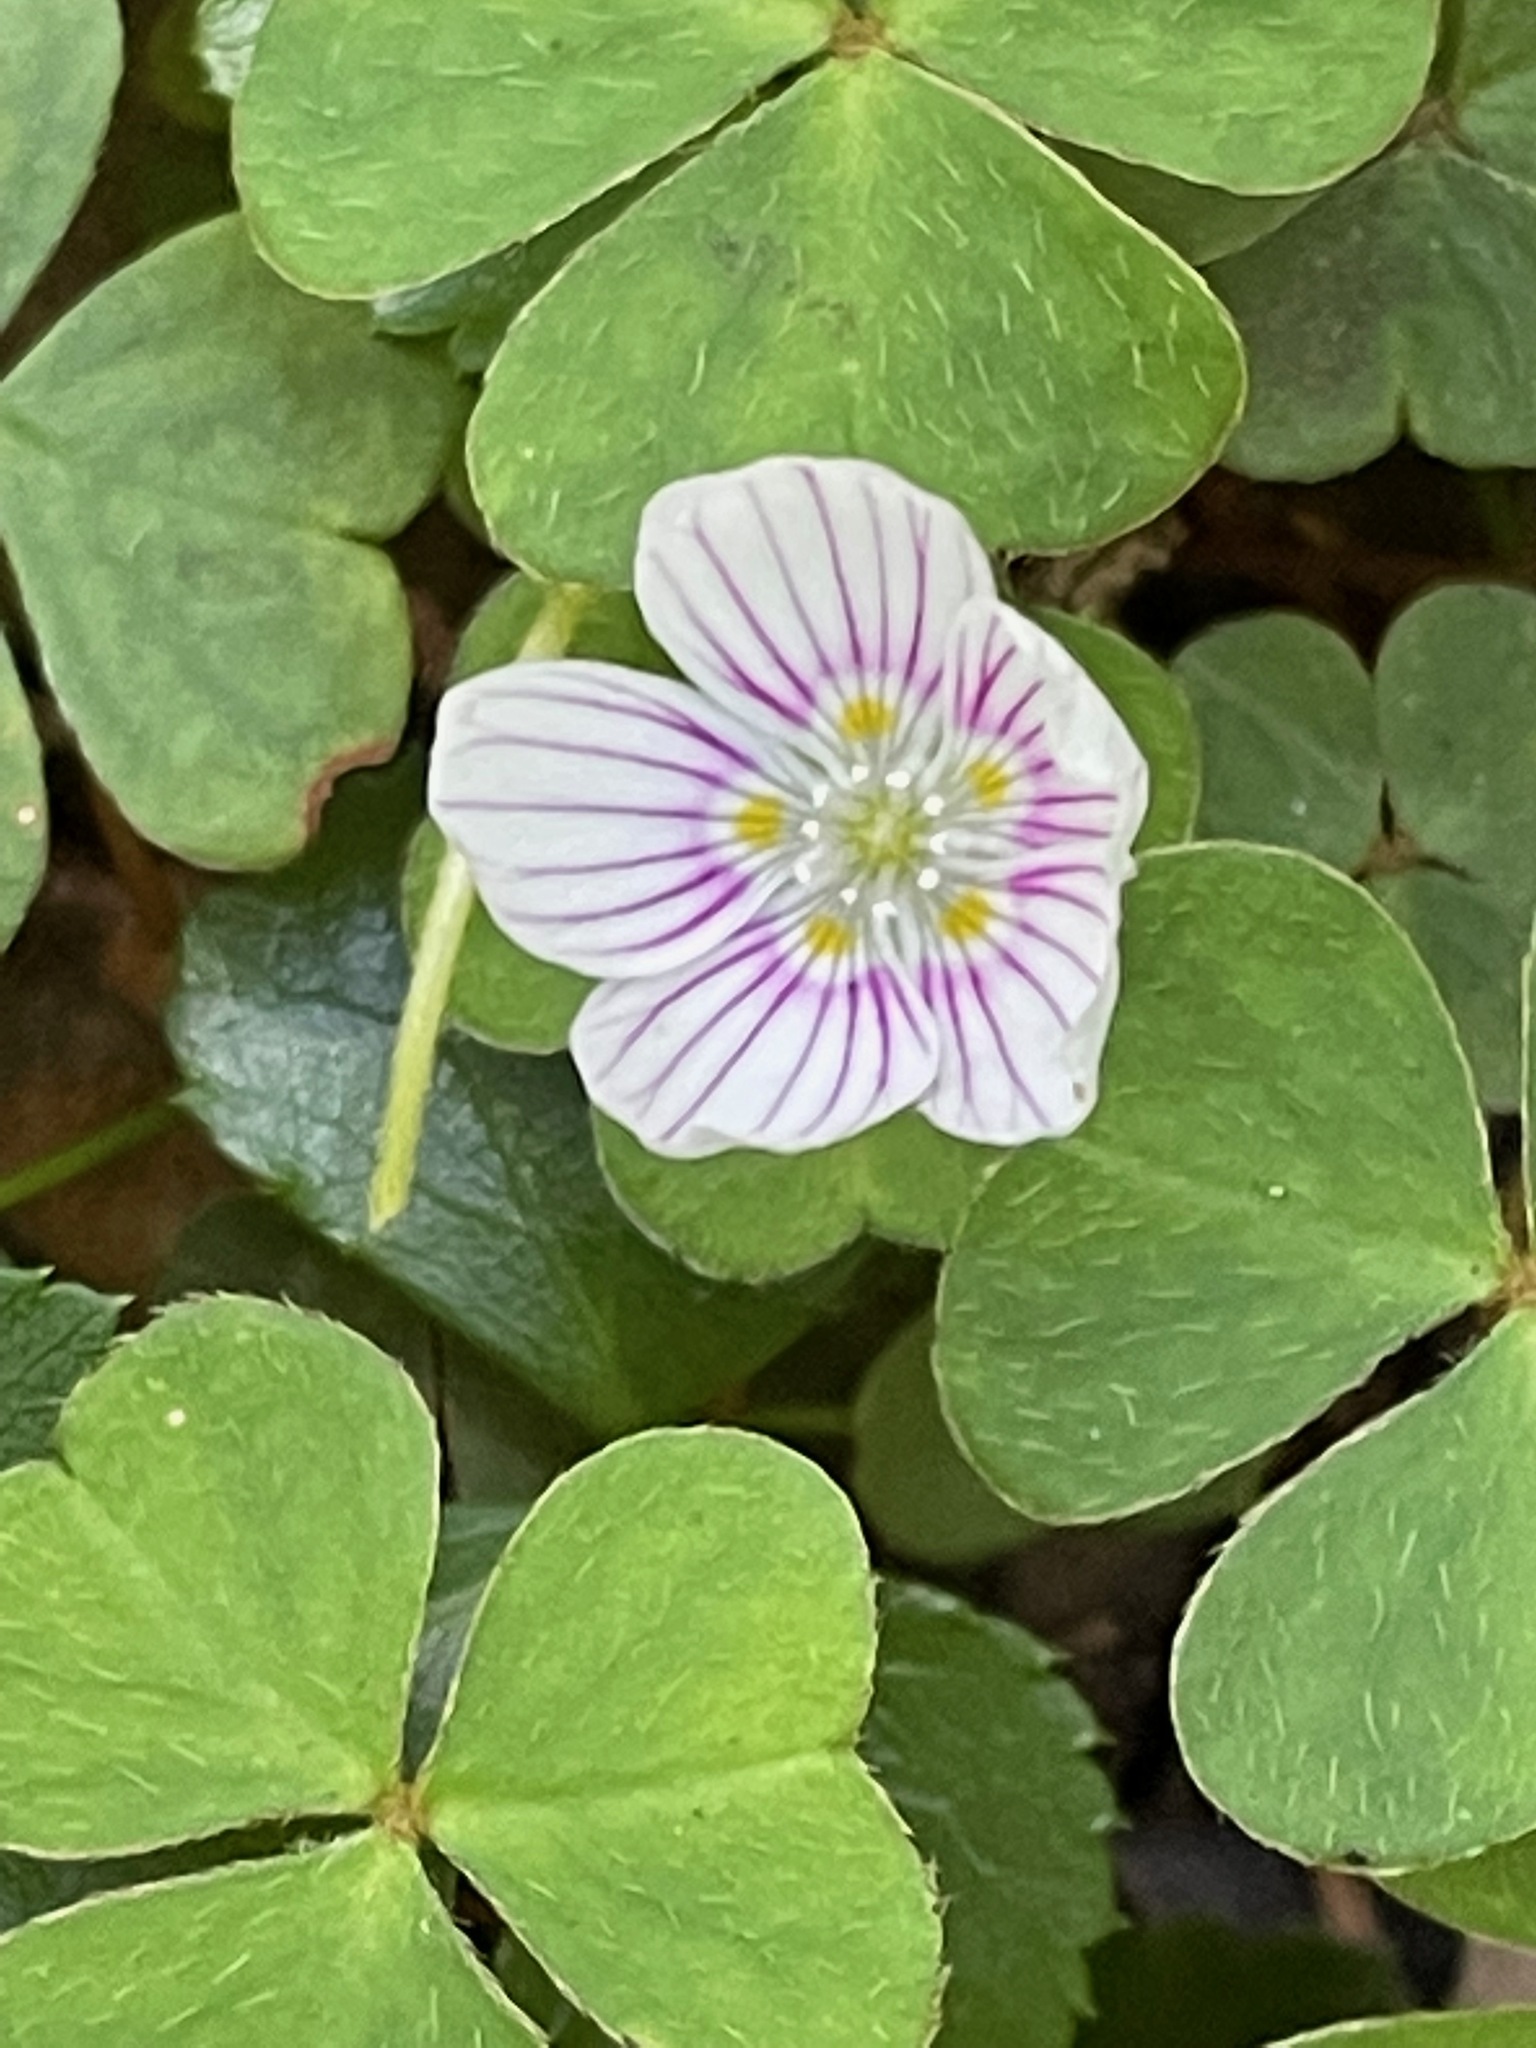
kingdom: Plantae
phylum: Tracheophyta
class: Magnoliopsida
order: Oxalidales
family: Oxalidaceae
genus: Oxalis
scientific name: Oxalis montana
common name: American wood-sorrel
